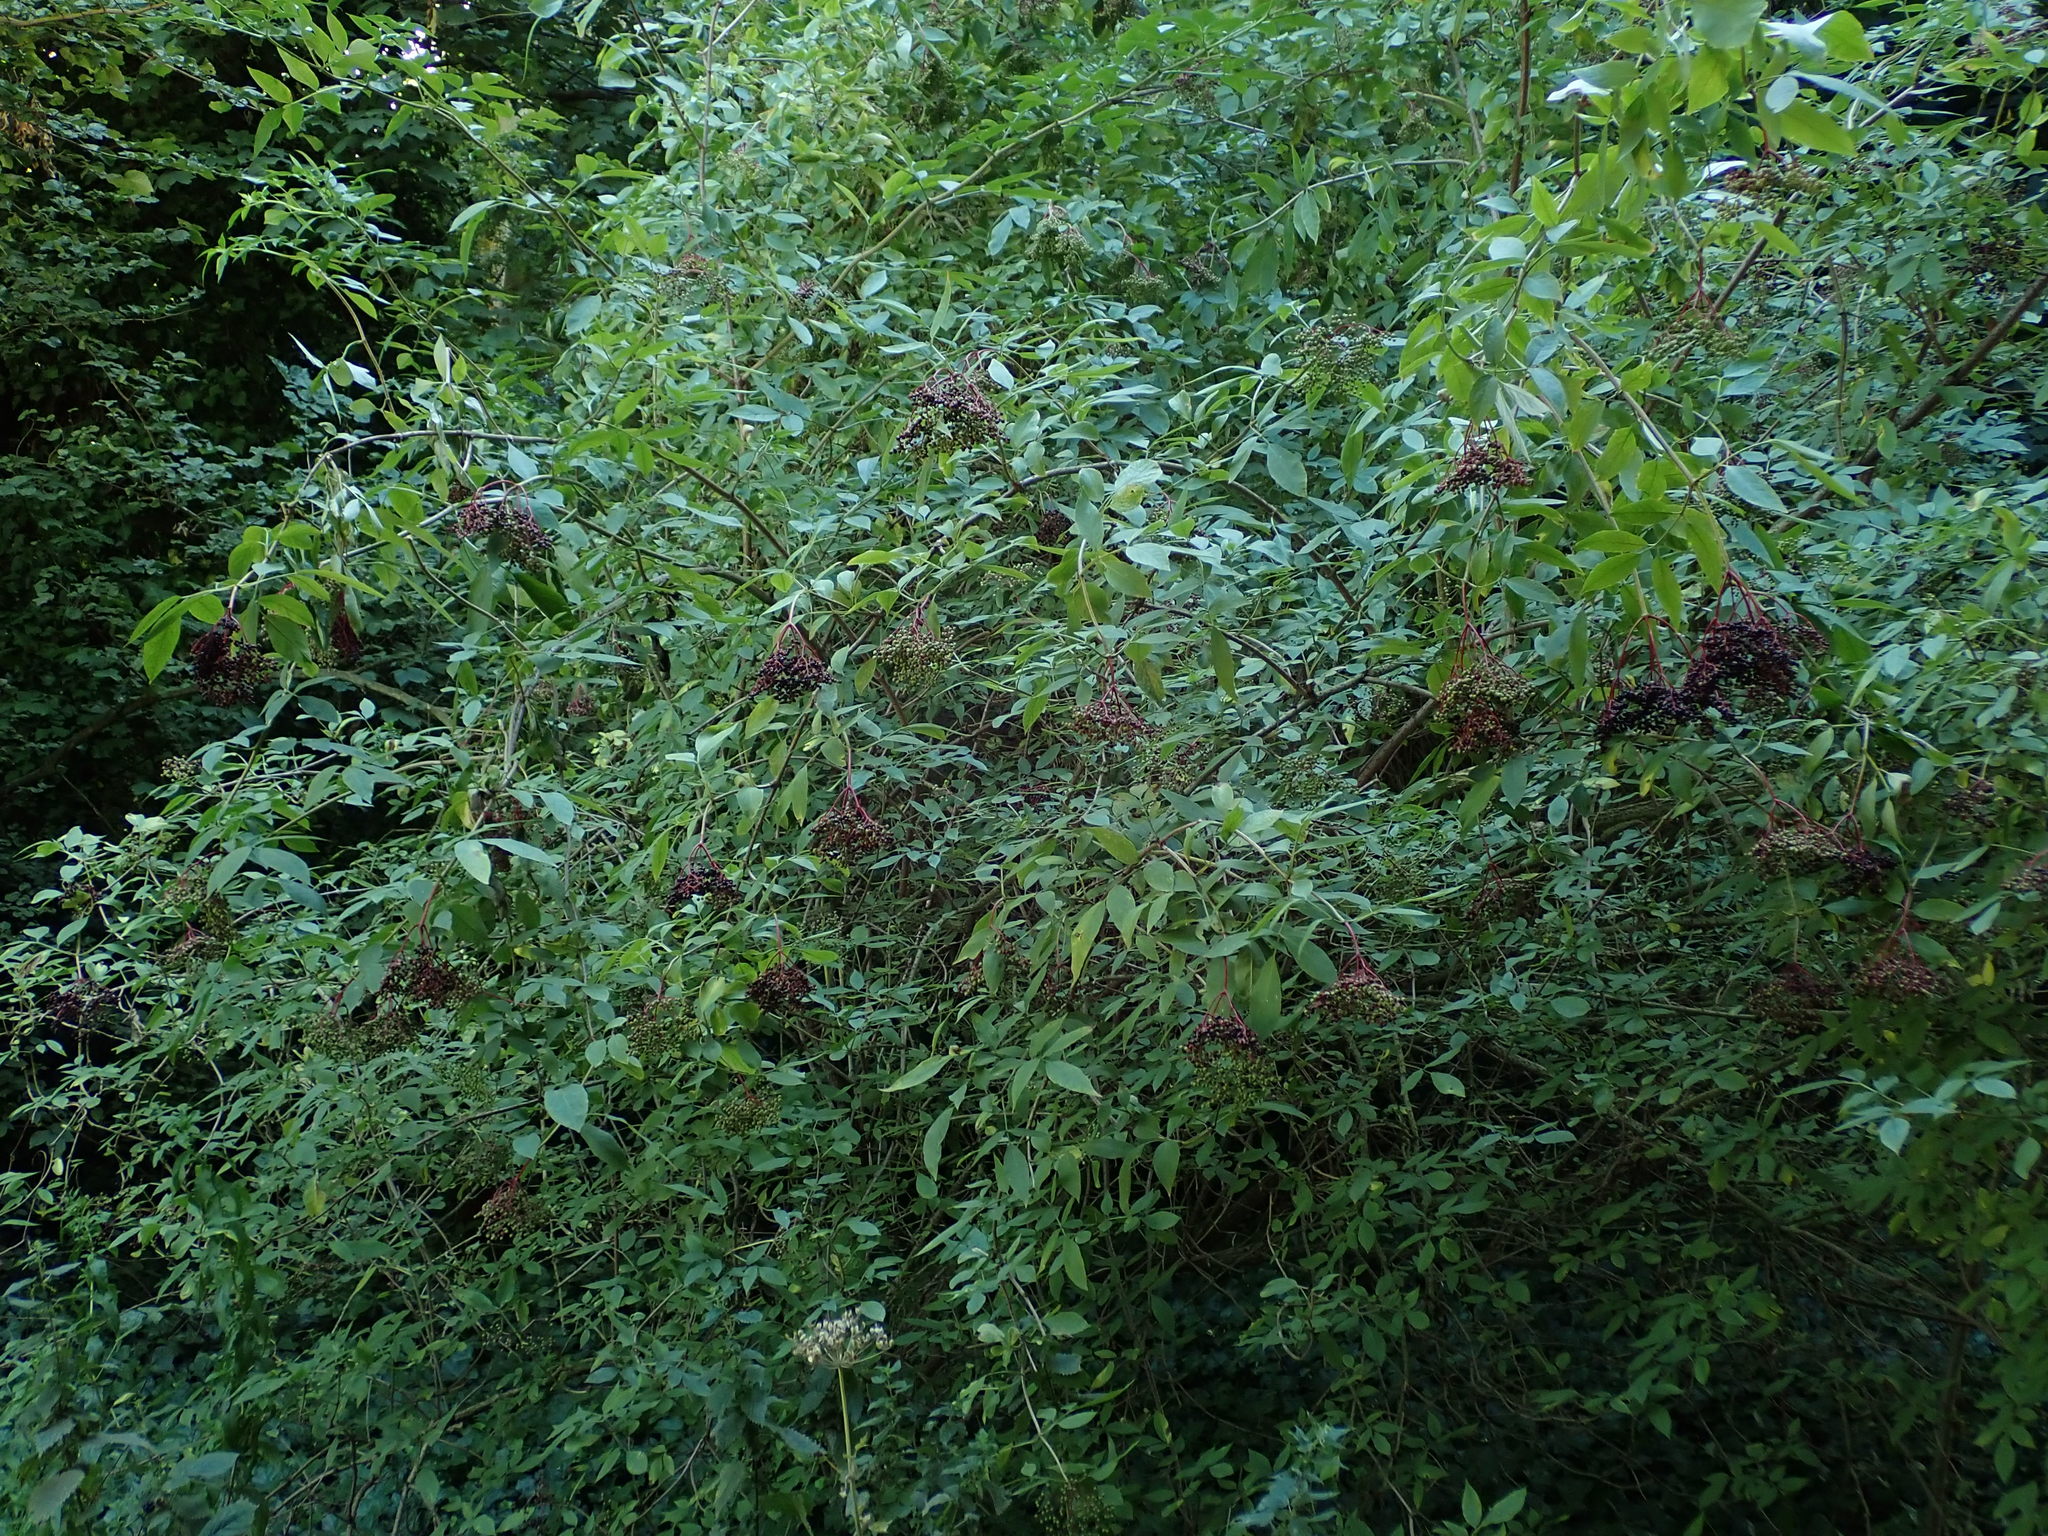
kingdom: Plantae
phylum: Tracheophyta
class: Magnoliopsida
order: Dipsacales
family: Viburnaceae
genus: Sambucus
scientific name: Sambucus nigra
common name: Elder
